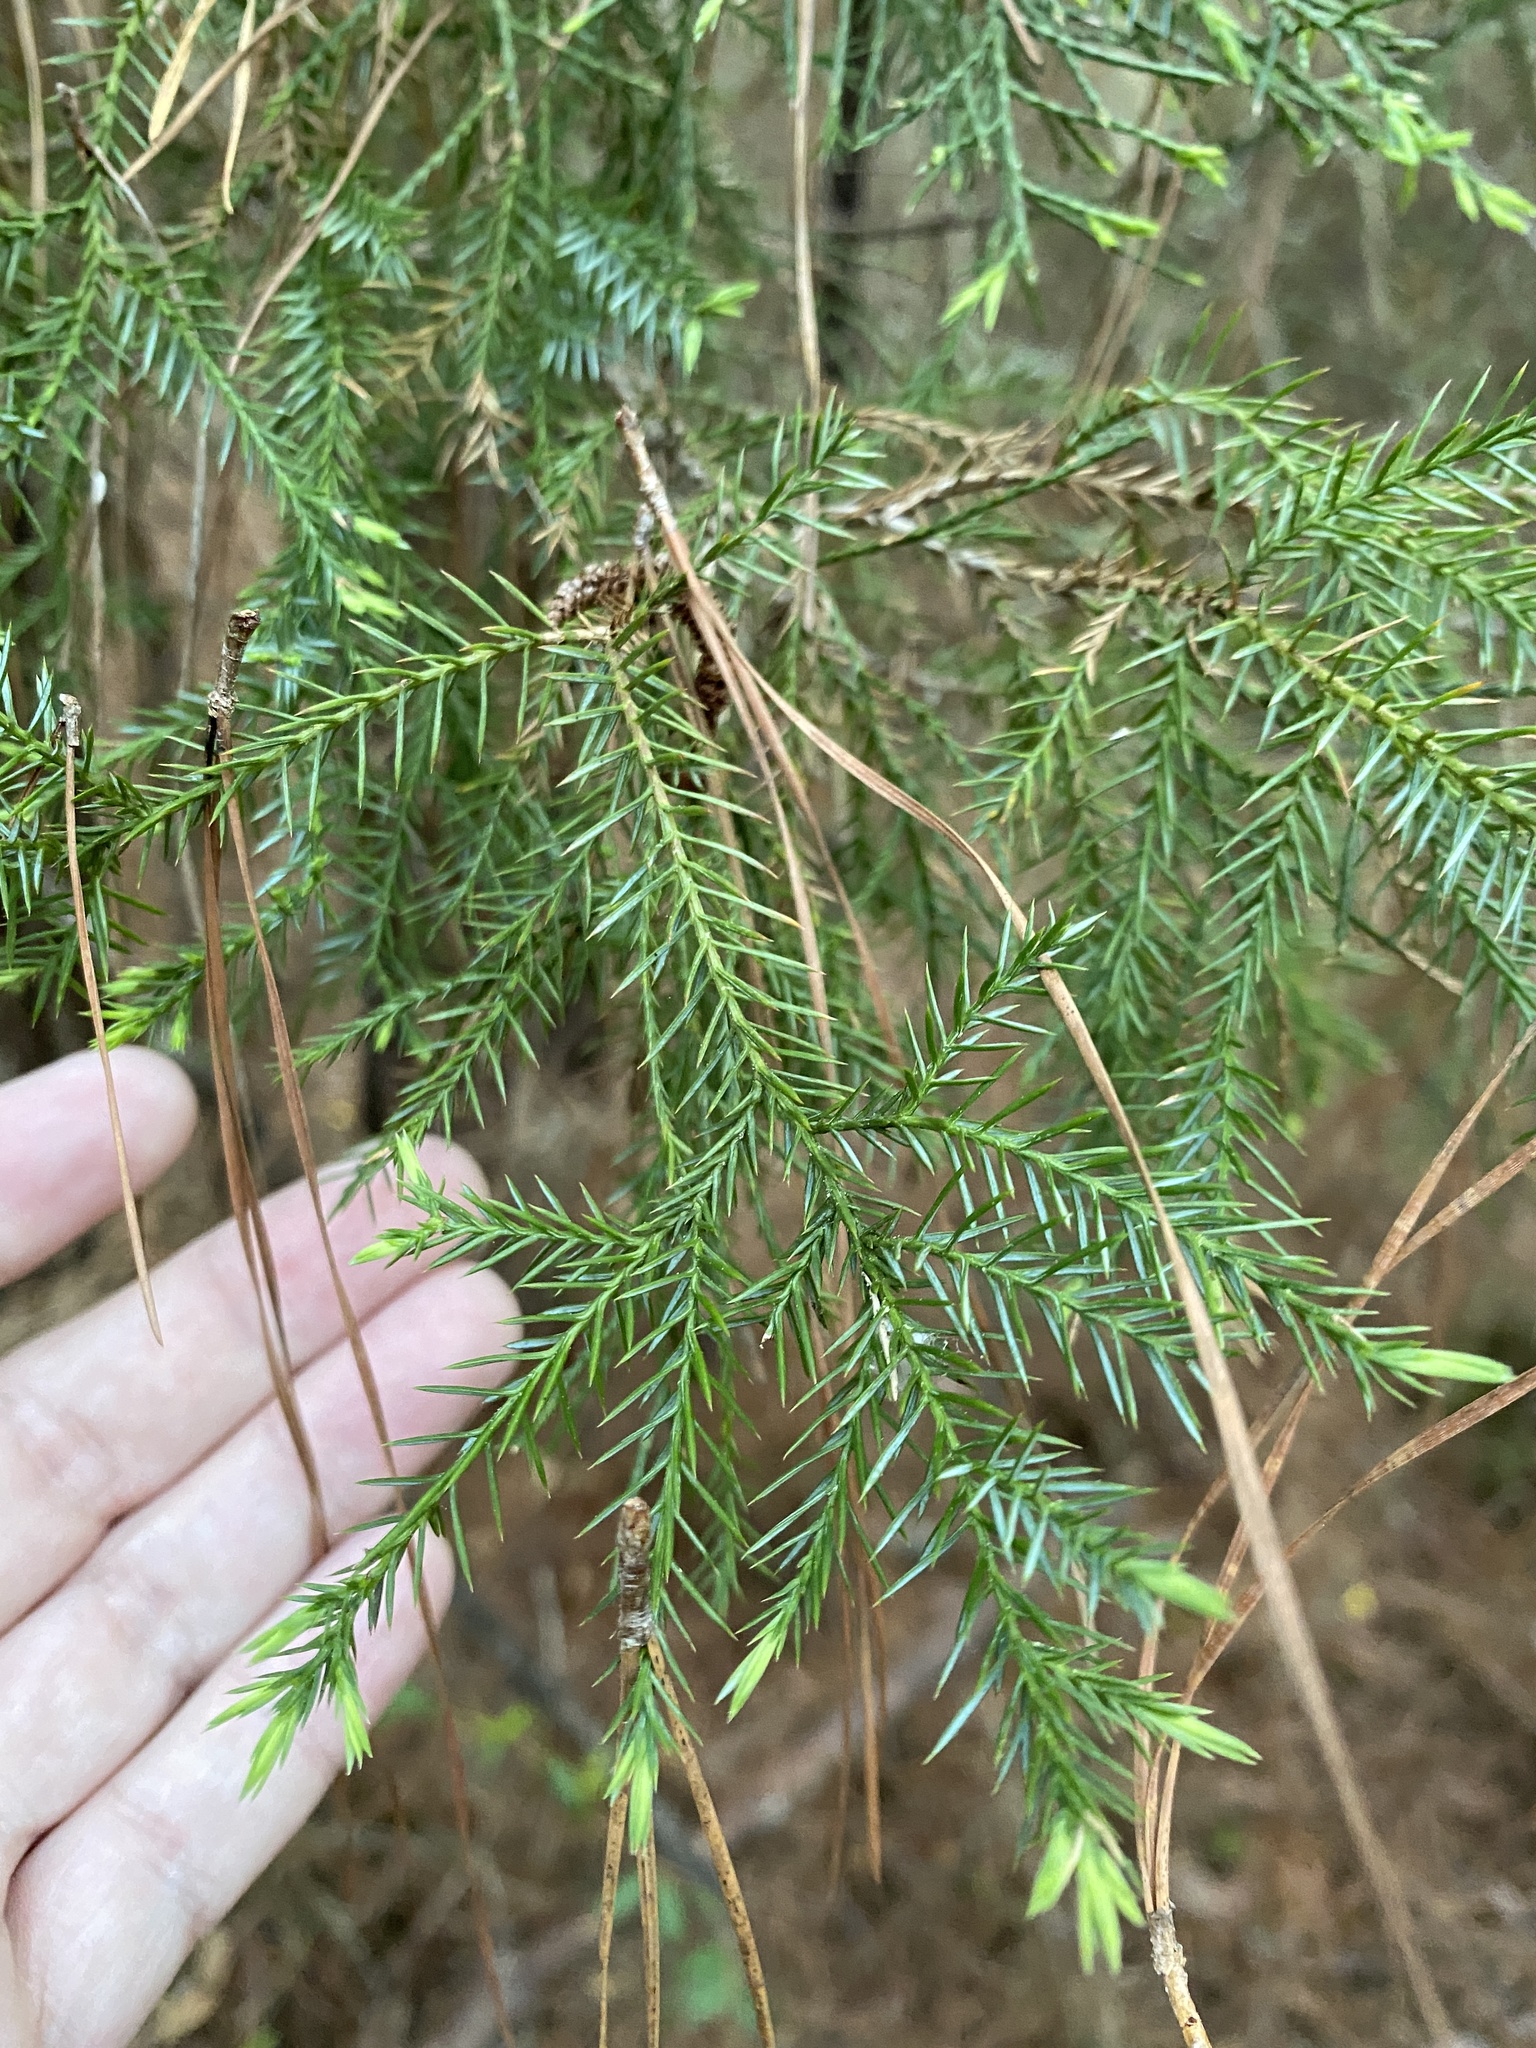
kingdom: Plantae
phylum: Tracheophyta
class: Pinopsida
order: Pinales
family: Cupressaceae
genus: Juniperus
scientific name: Juniperus virginiana
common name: Red juniper
